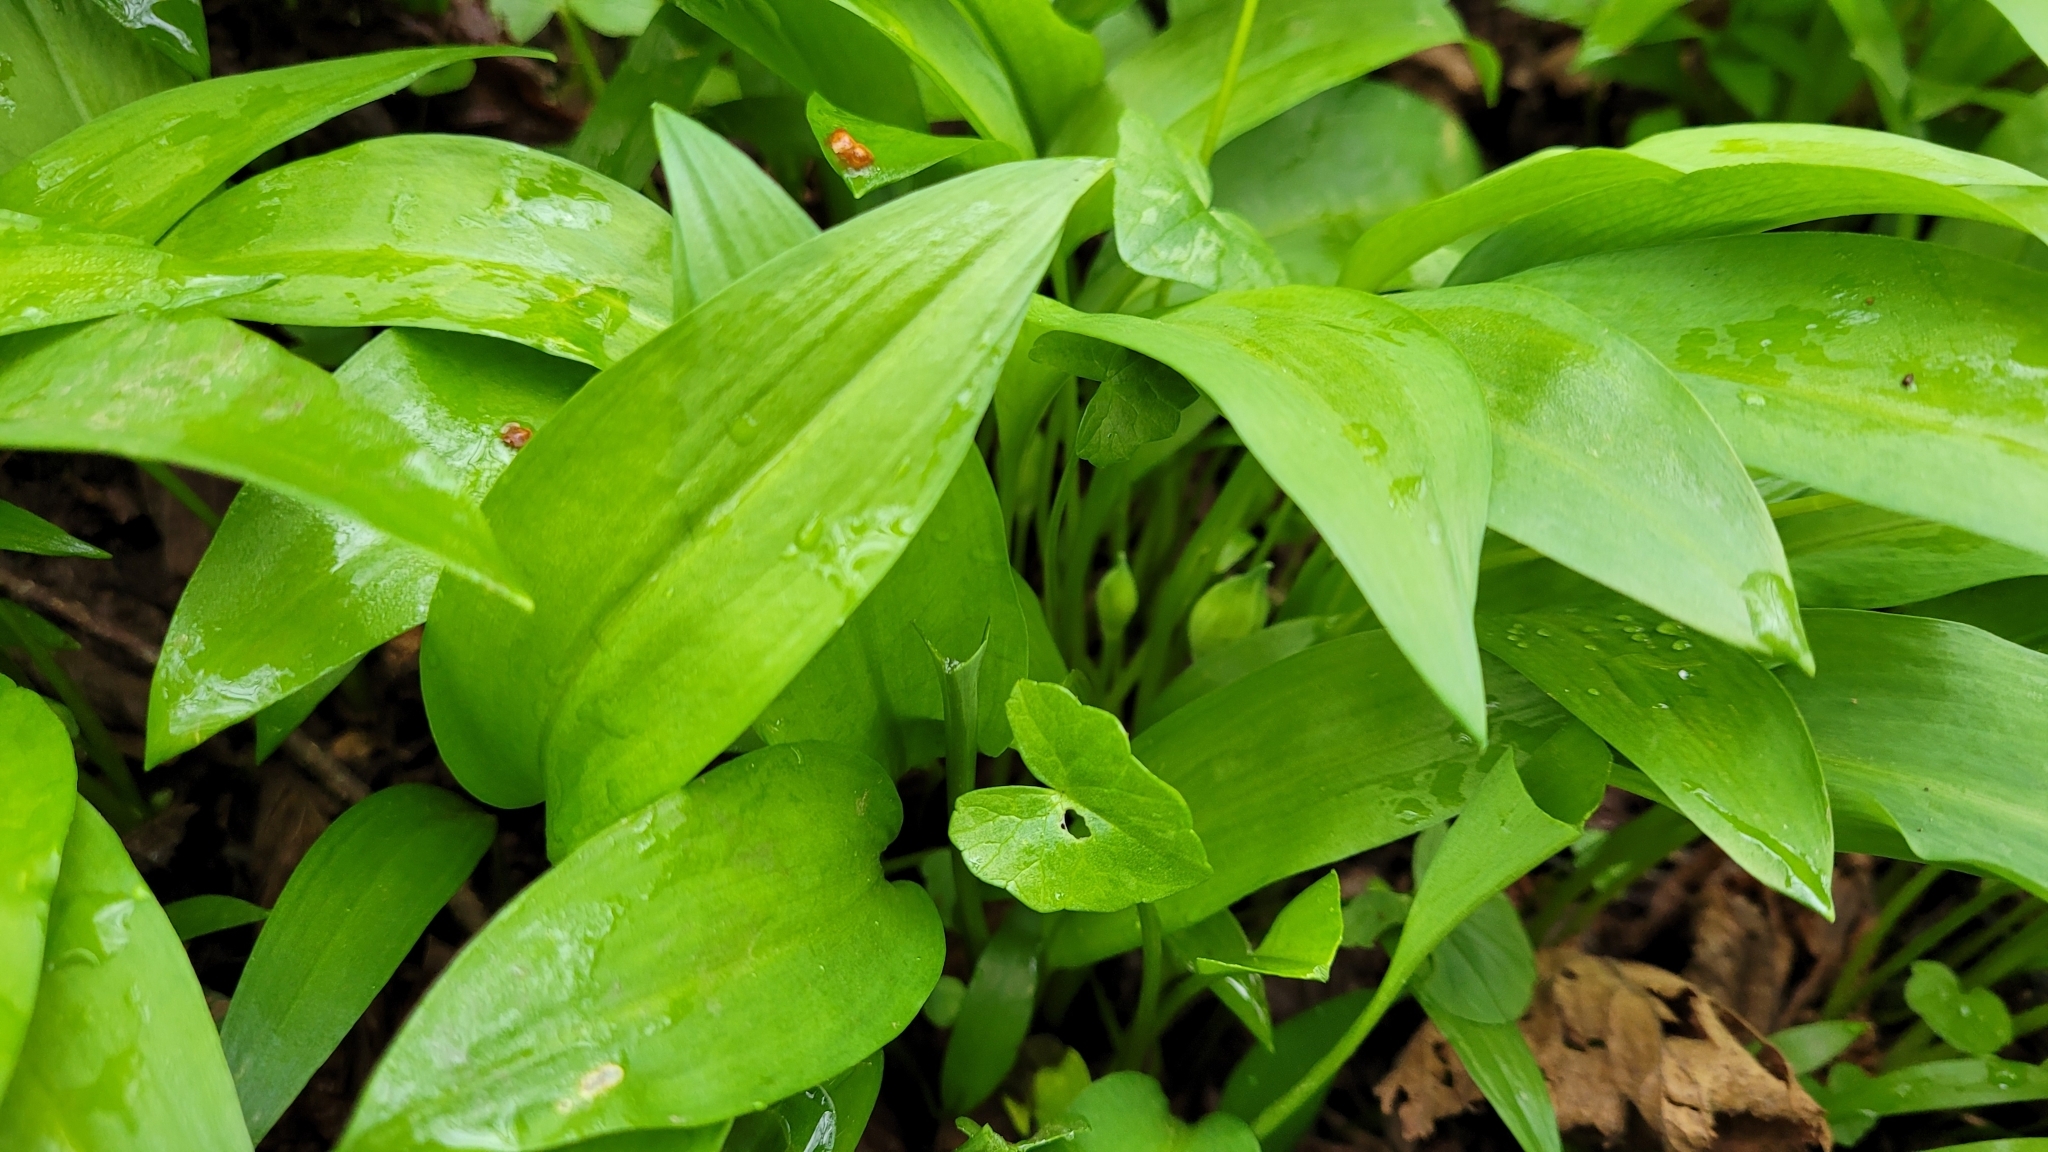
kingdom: Plantae
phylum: Tracheophyta
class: Liliopsida
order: Asparagales
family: Amaryllidaceae
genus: Allium
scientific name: Allium ursinum
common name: Ramsons
